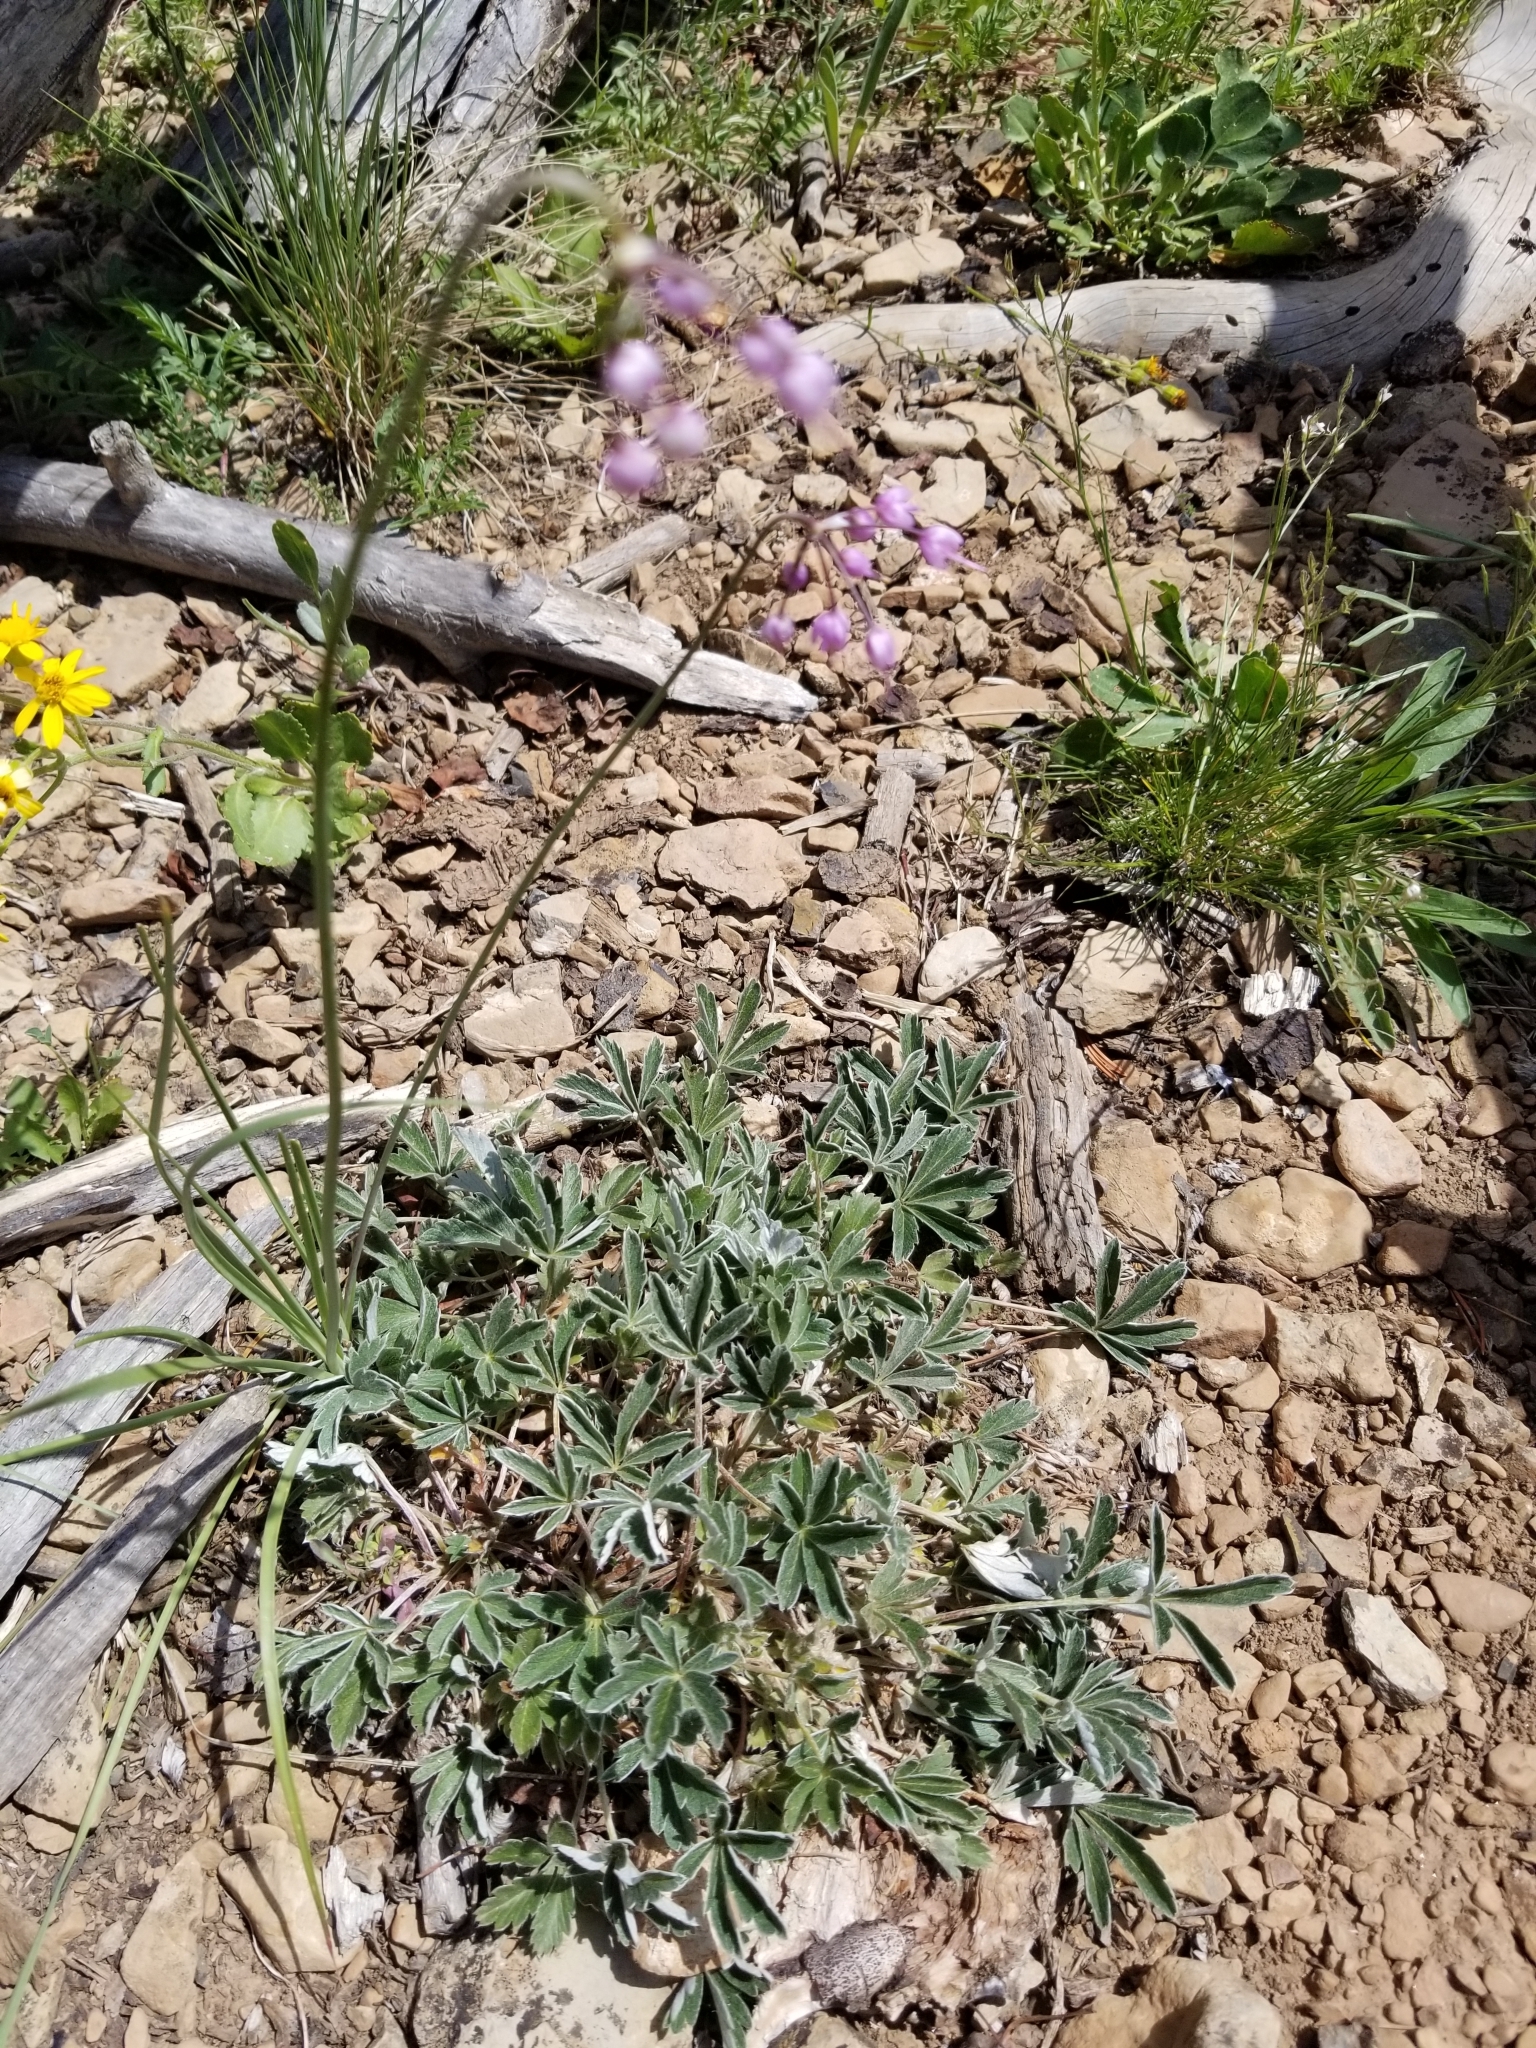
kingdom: Plantae
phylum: Tracheophyta
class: Liliopsida
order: Asparagales
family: Amaryllidaceae
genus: Allium
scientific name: Allium cernuum
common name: Nodding onion
